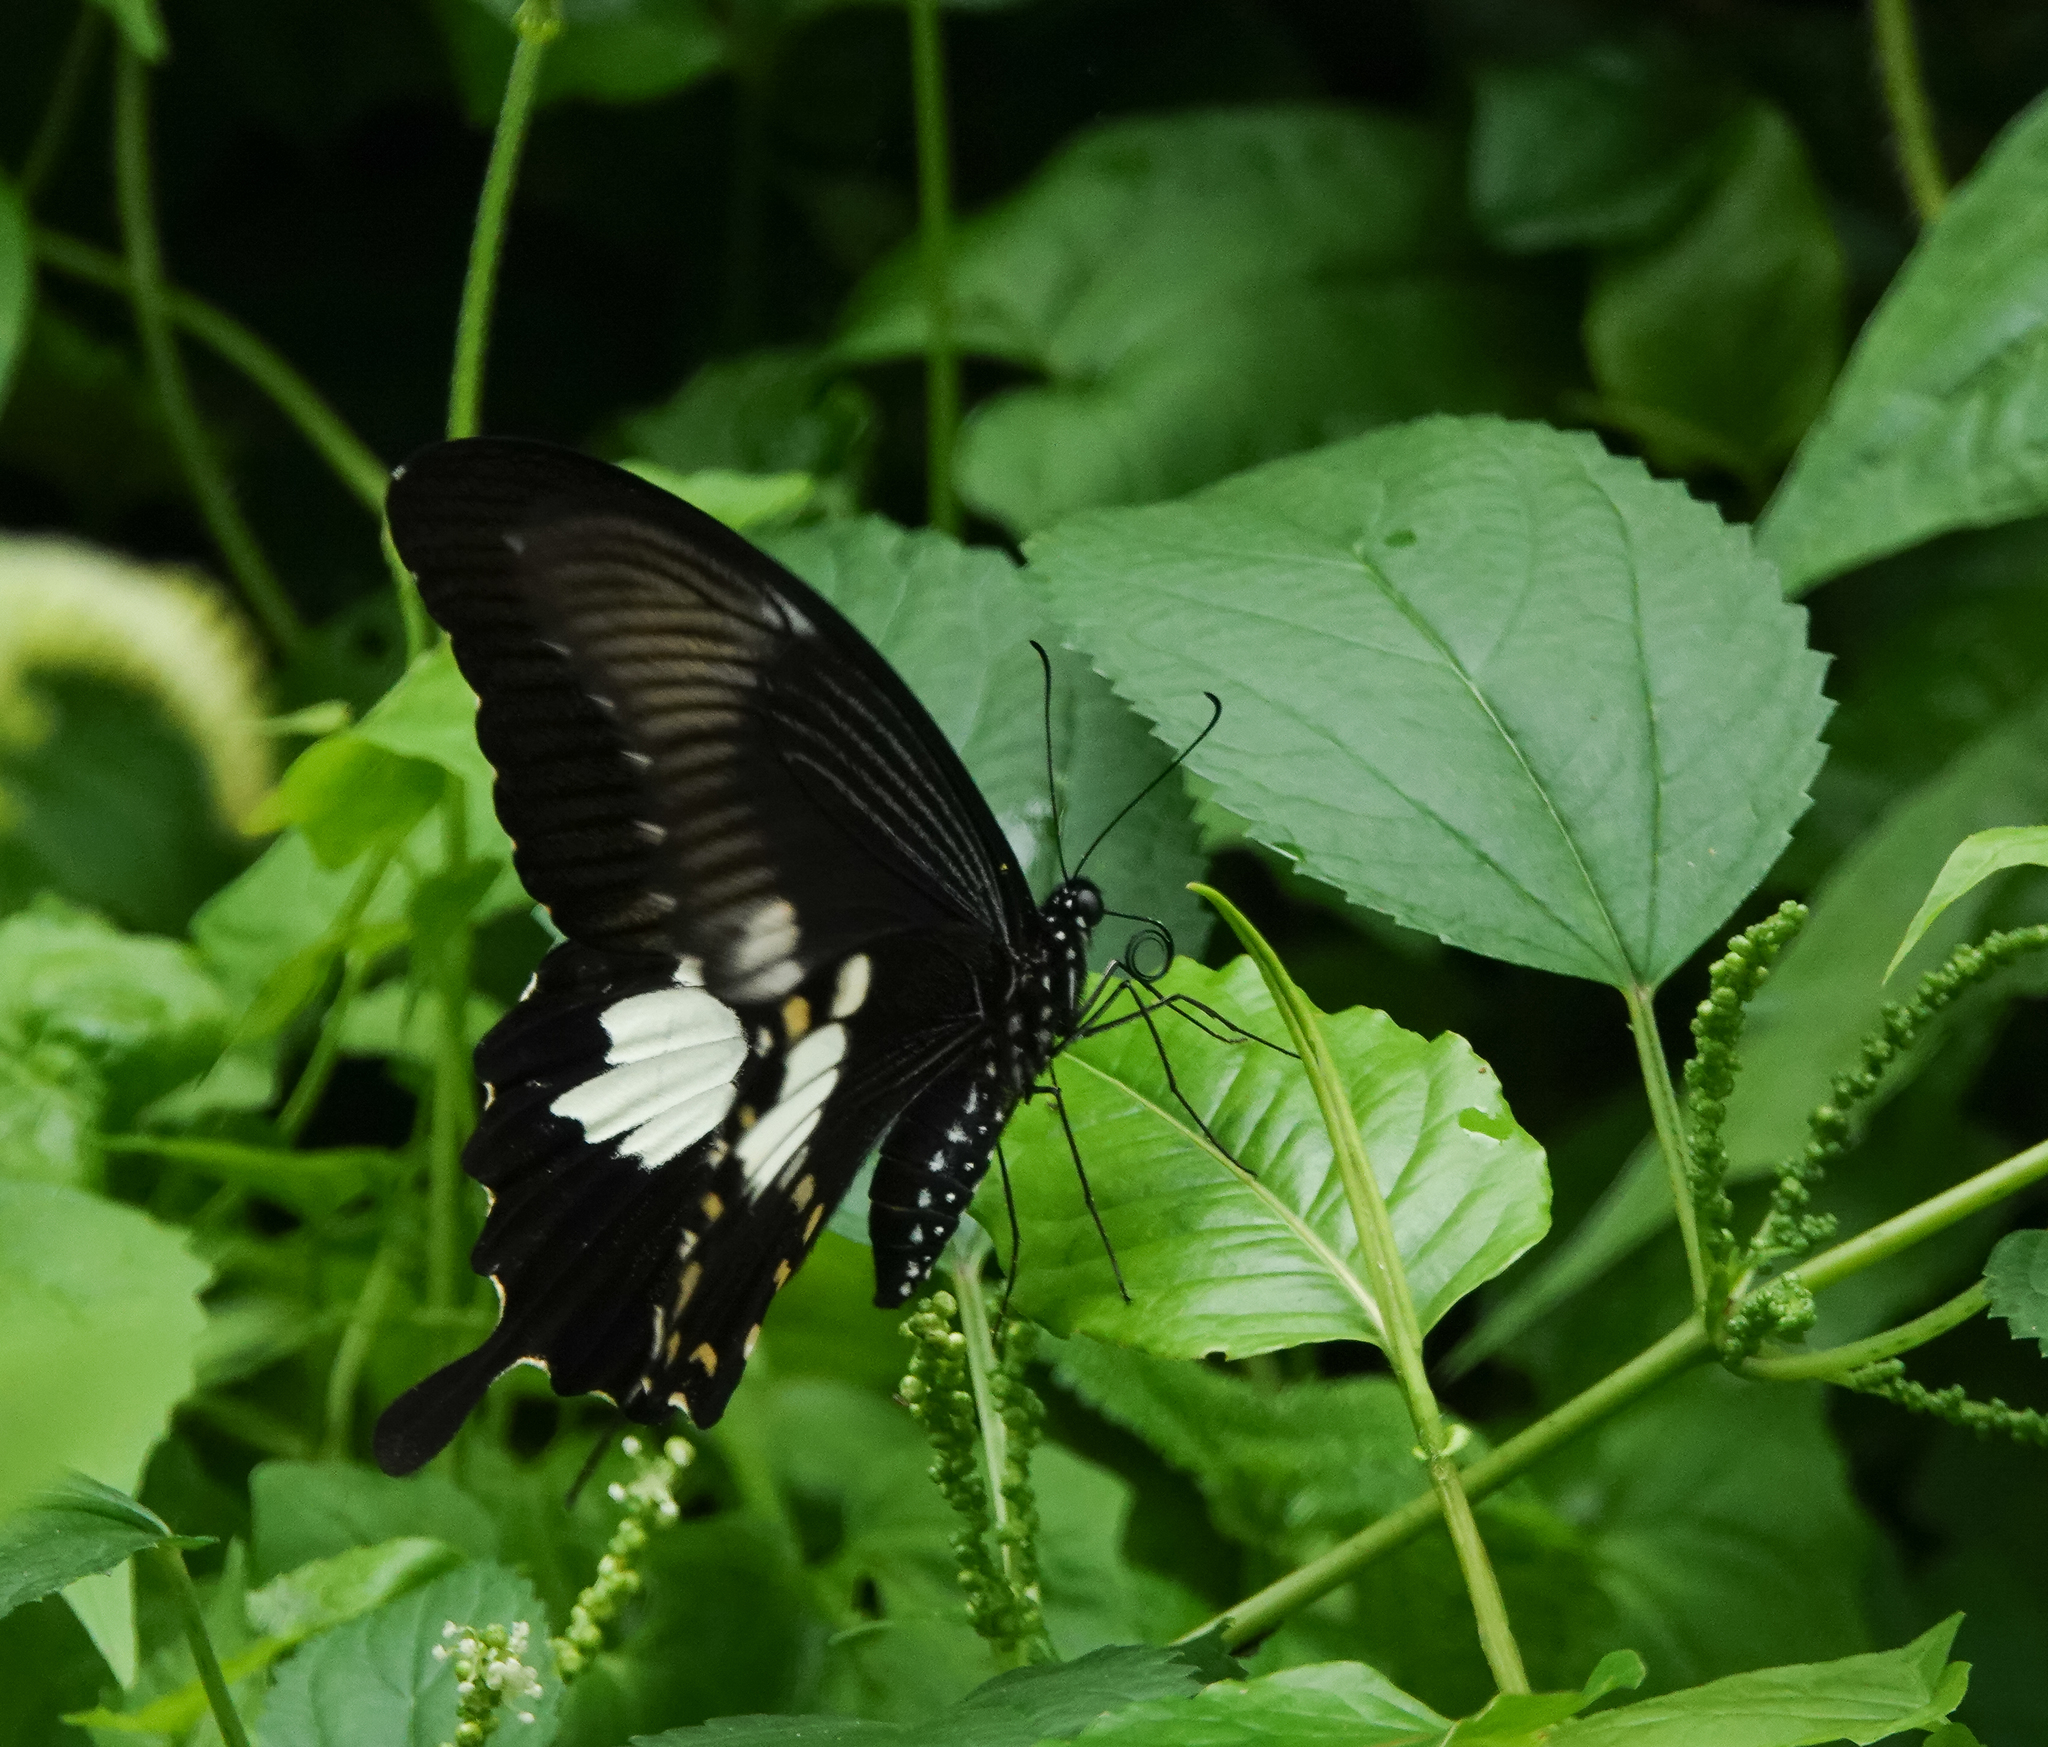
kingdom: Animalia
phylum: Arthropoda
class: Insecta
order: Lepidoptera
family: Papilionidae
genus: Papilio
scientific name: Papilio nephelus
